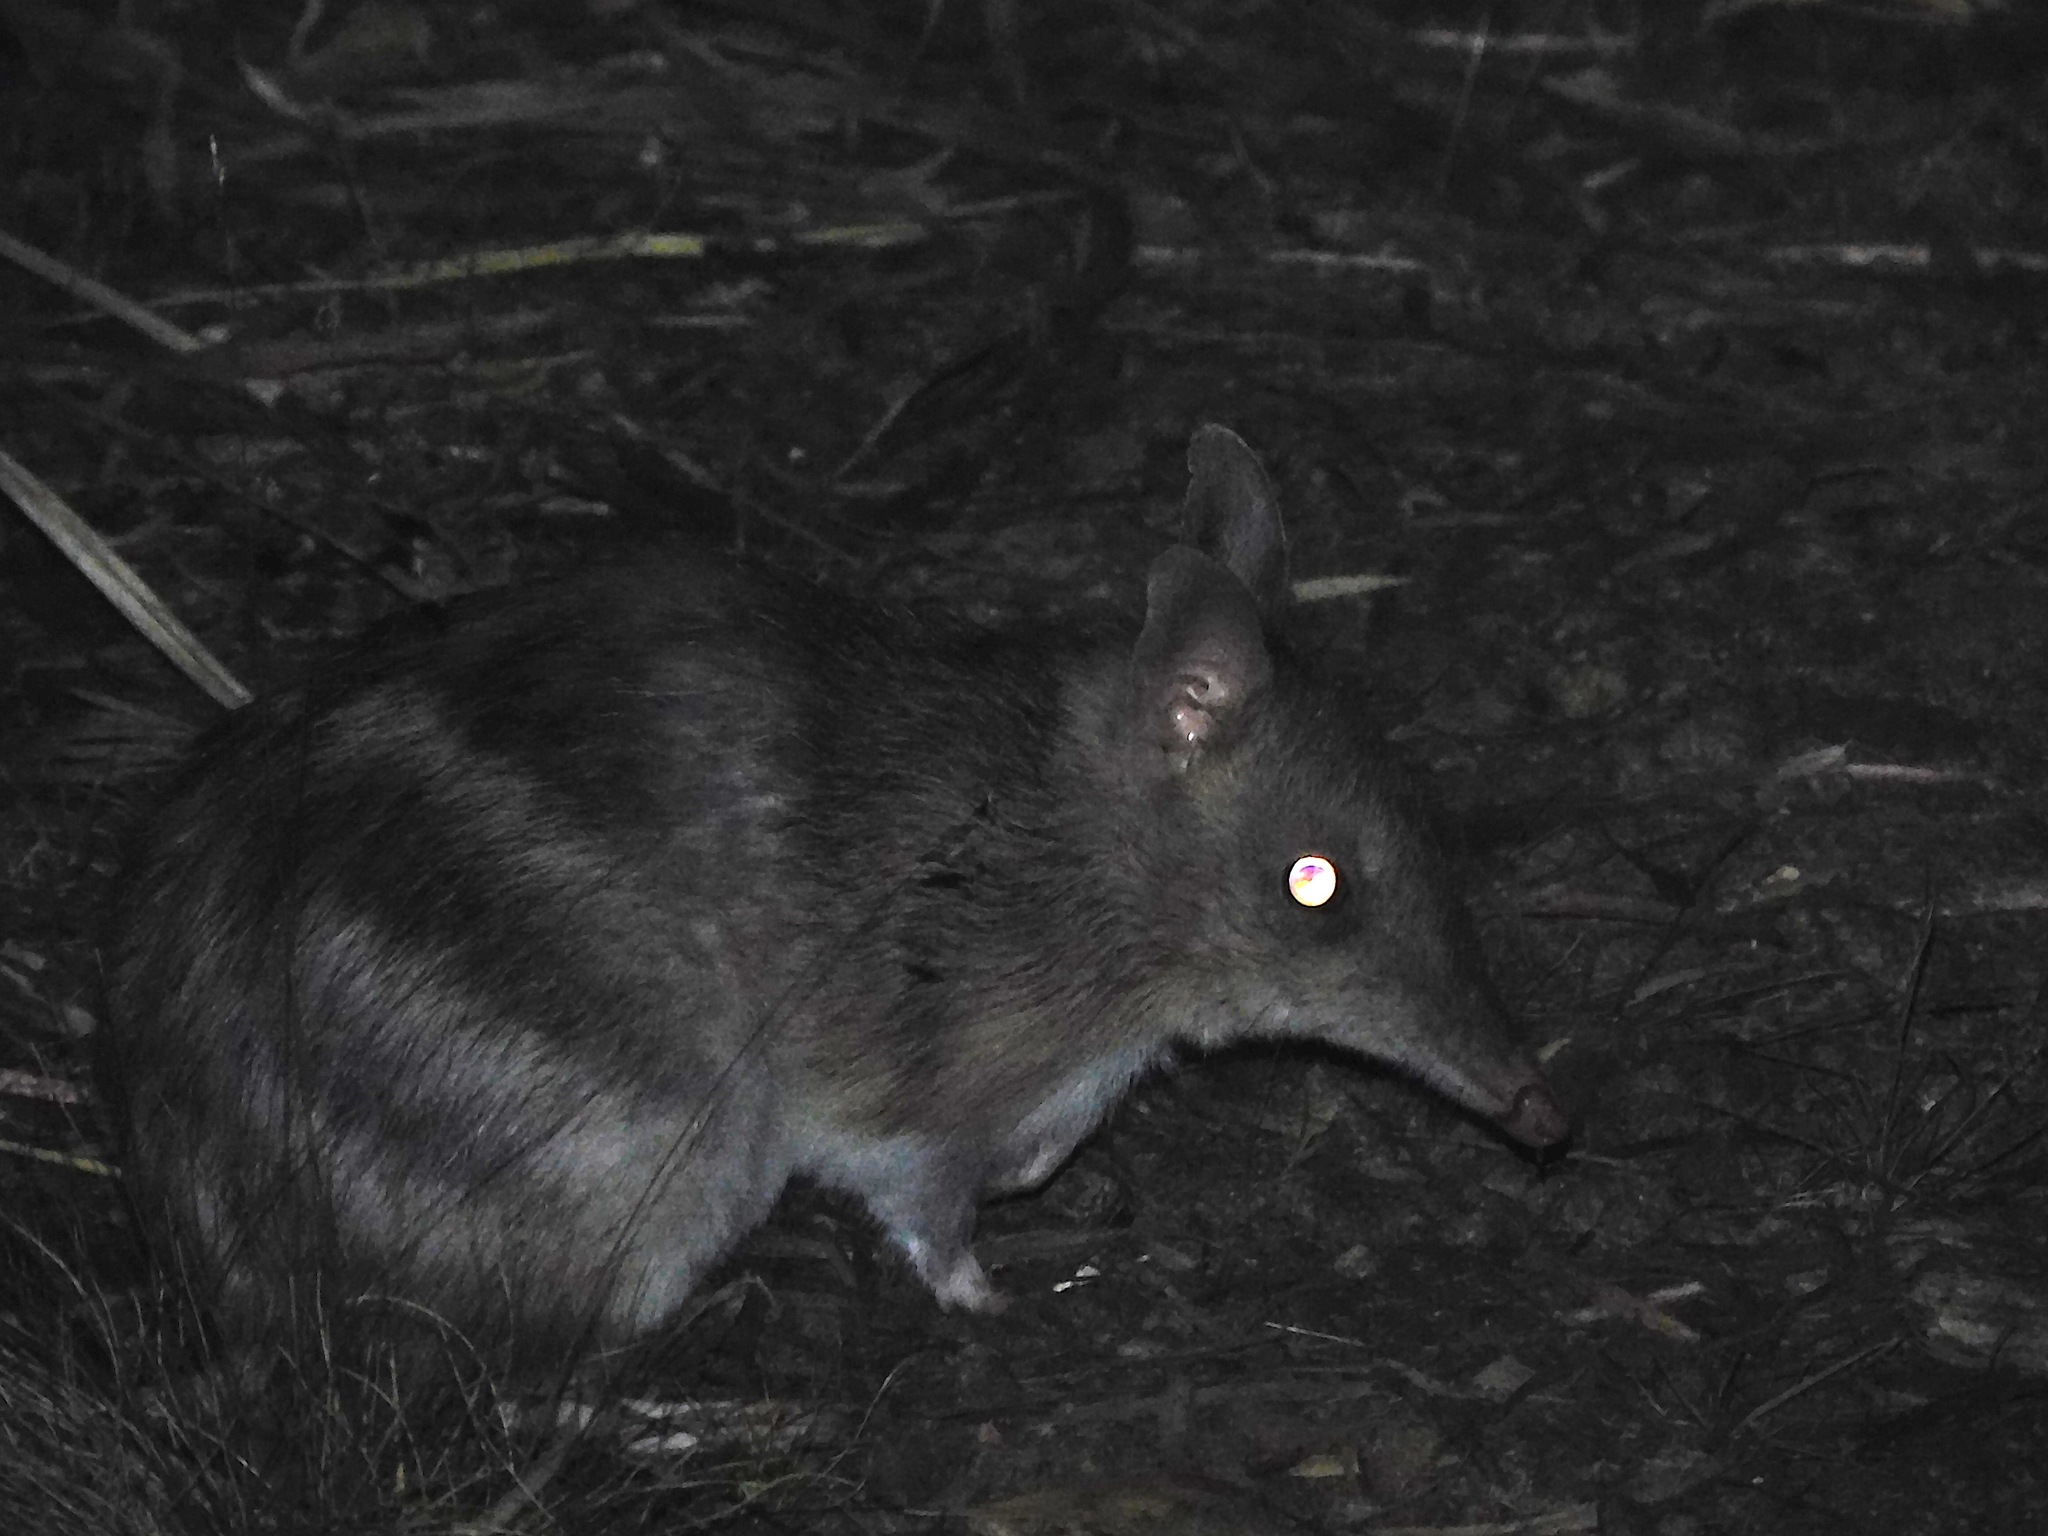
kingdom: Animalia
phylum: Chordata
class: Mammalia
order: Peramelemorphia
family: Peramelidae
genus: Perameles
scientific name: Perameles gunnii
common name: Eastern barred bandicoot
